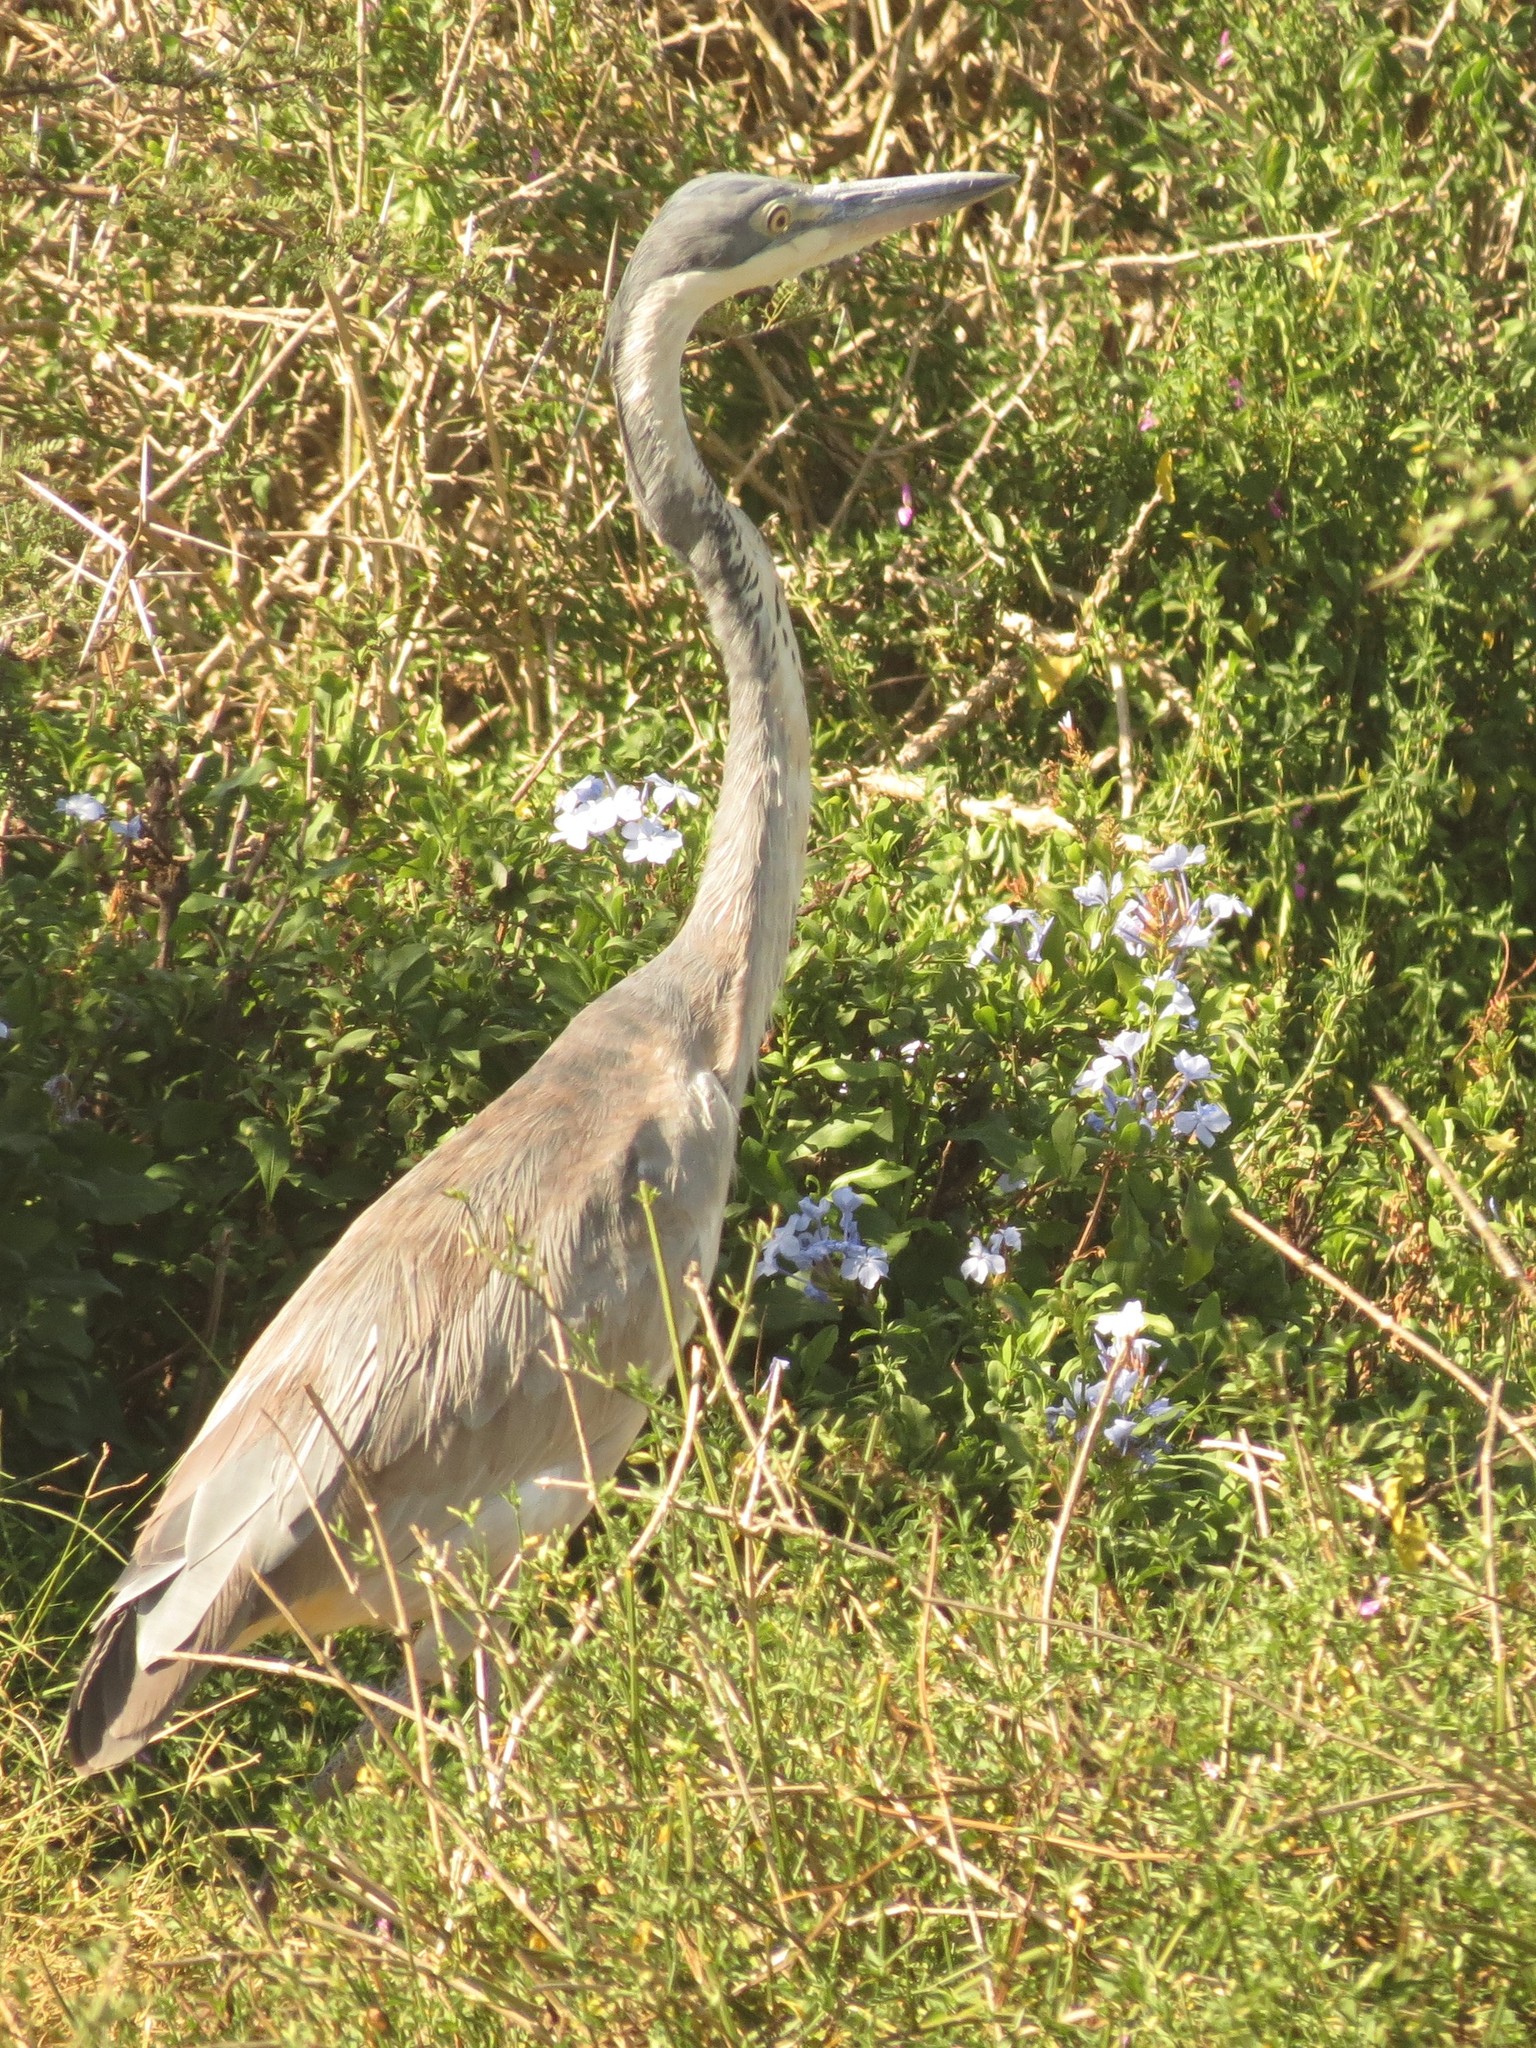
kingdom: Animalia
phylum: Chordata
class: Aves
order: Pelecaniformes
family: Ardeidae
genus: Ardea
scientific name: Ardea melanocephala
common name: Black-headed heron
